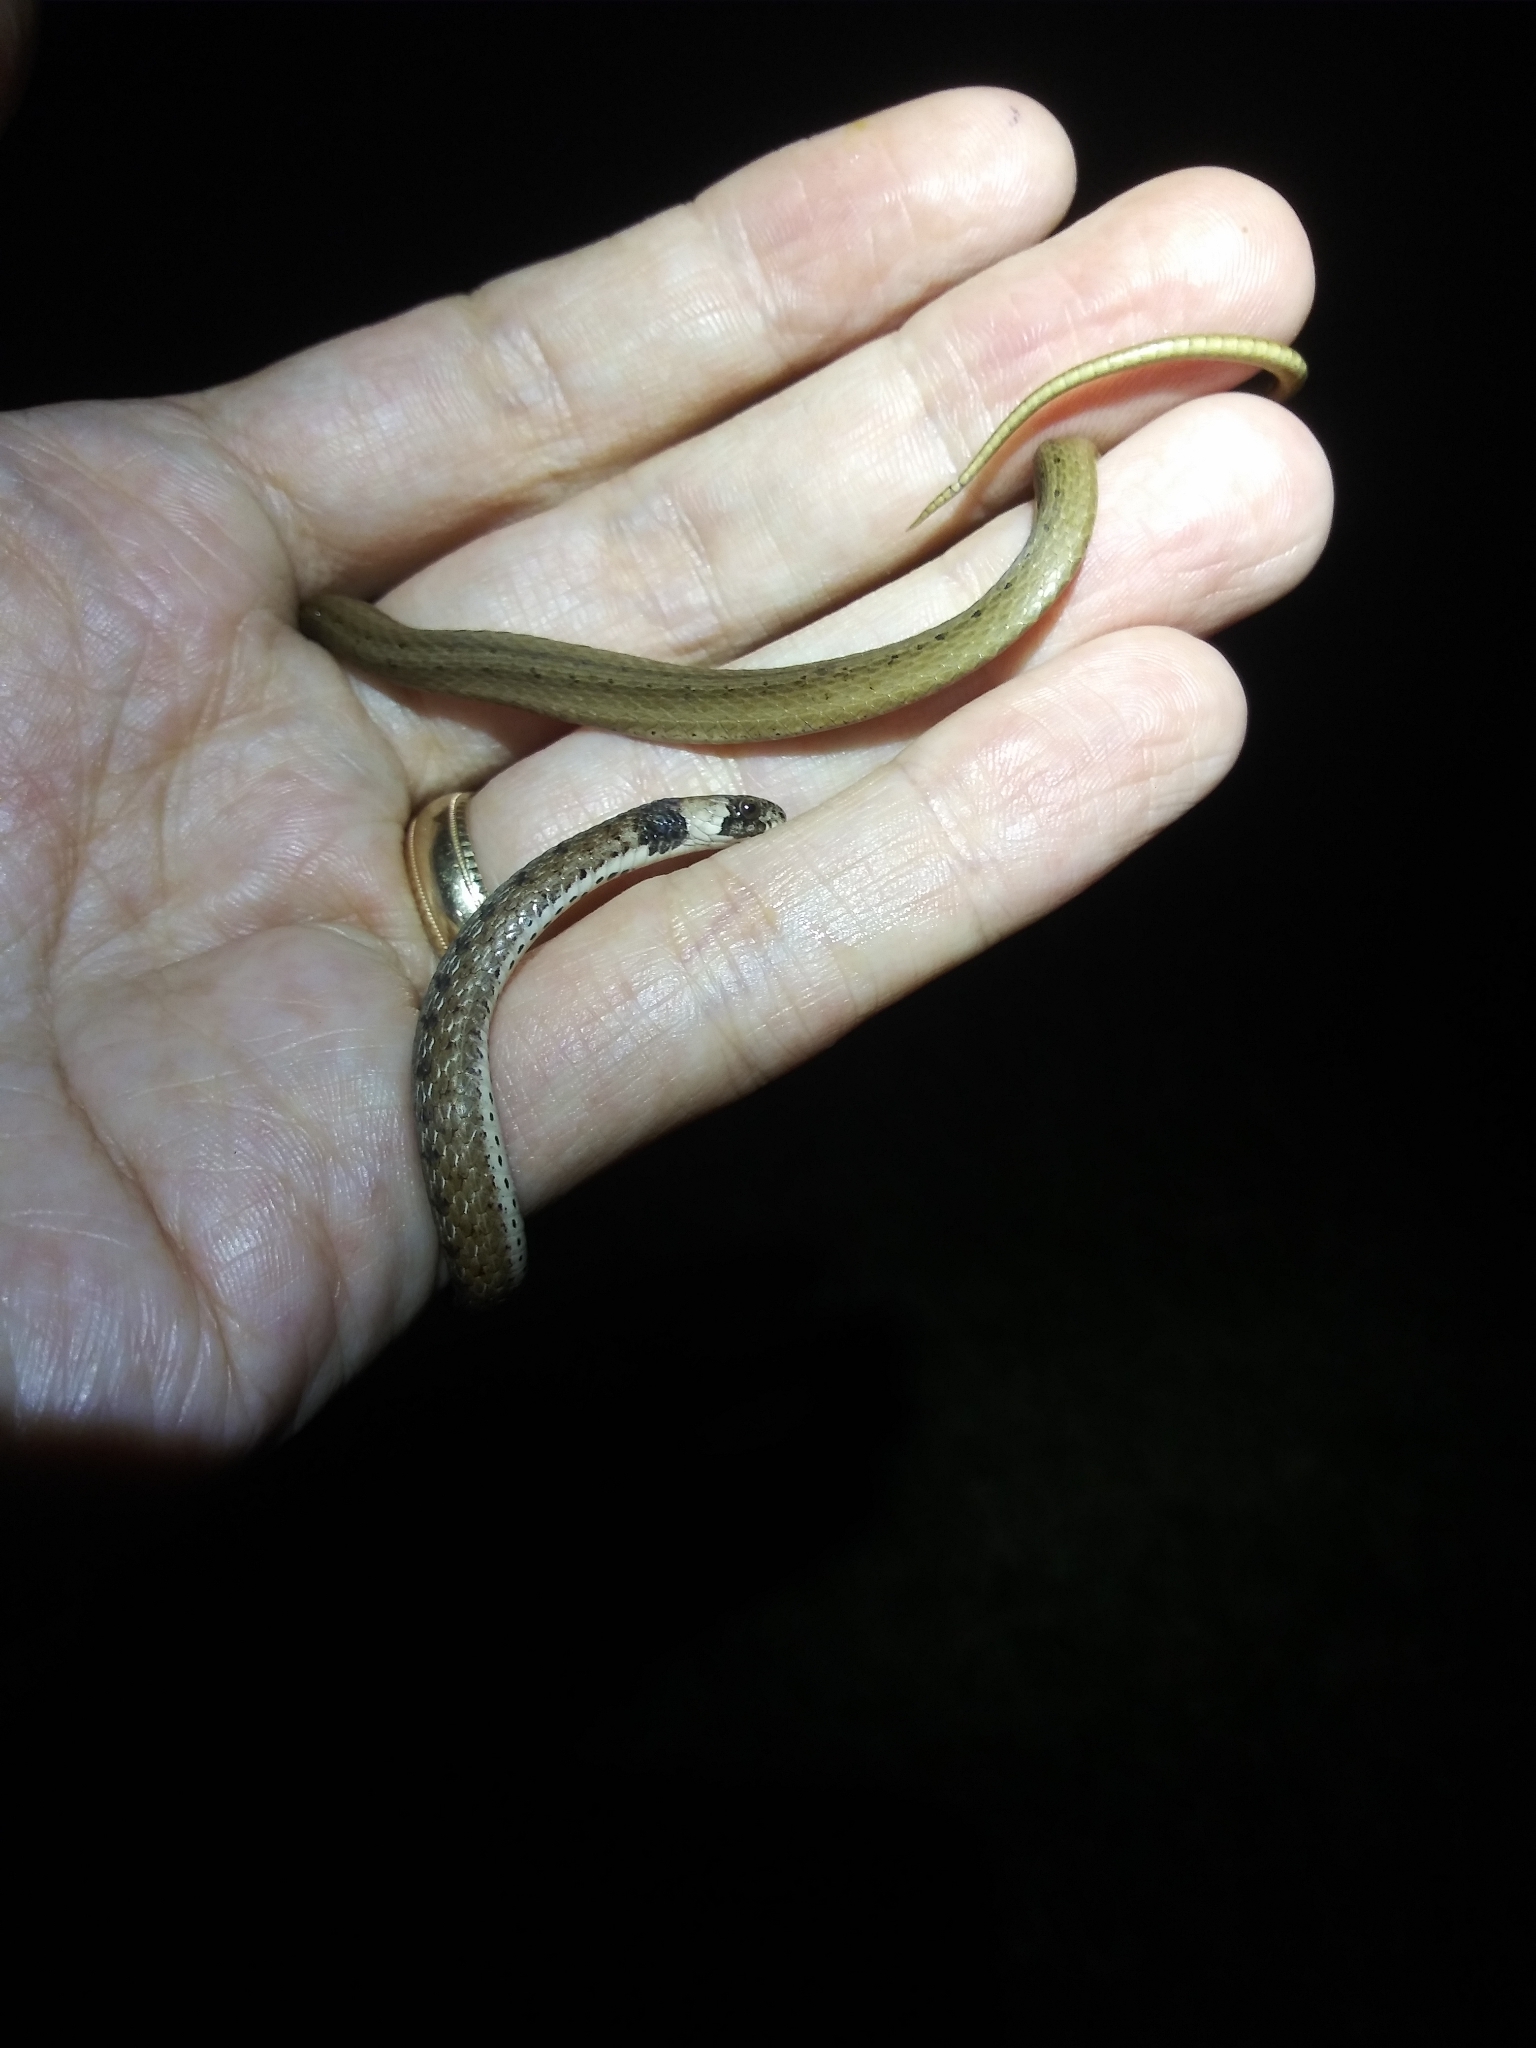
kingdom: Animalia
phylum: Chordata
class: Squamata
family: Colubridae
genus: Storeria
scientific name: Storeria victa
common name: Florida brown snake
